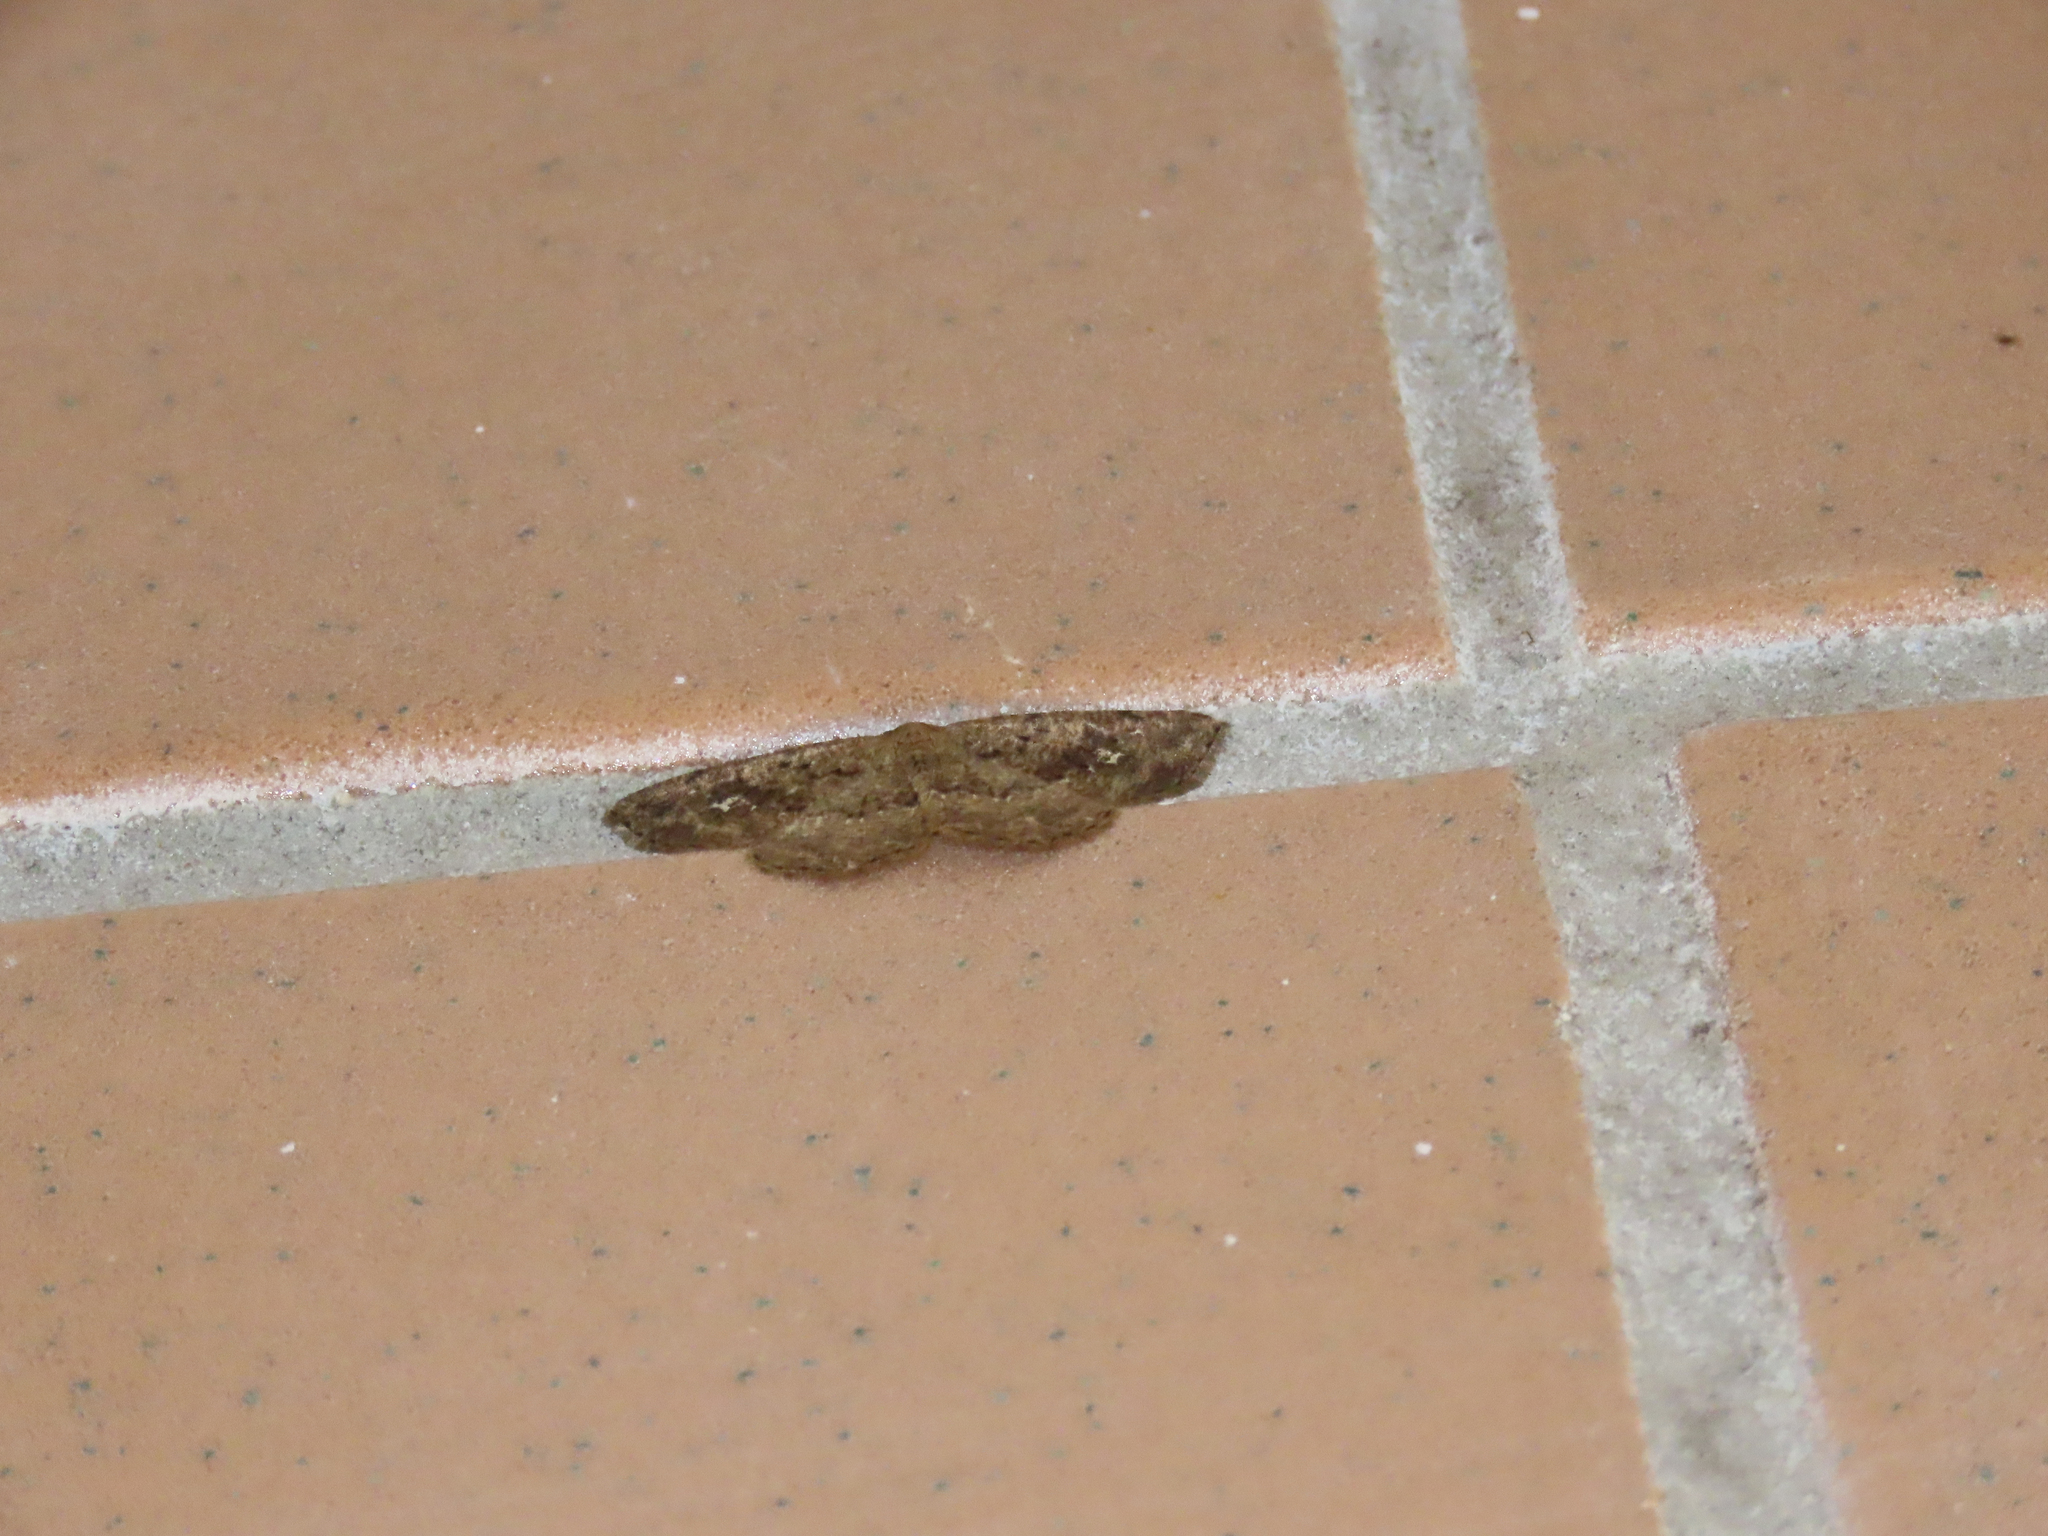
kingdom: Animalia
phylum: Arthropoda
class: Insecta
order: Lepidoptera
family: Geometridae
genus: Homochlodes
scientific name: Homochlodes fritillaria
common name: Pale homochlodes
